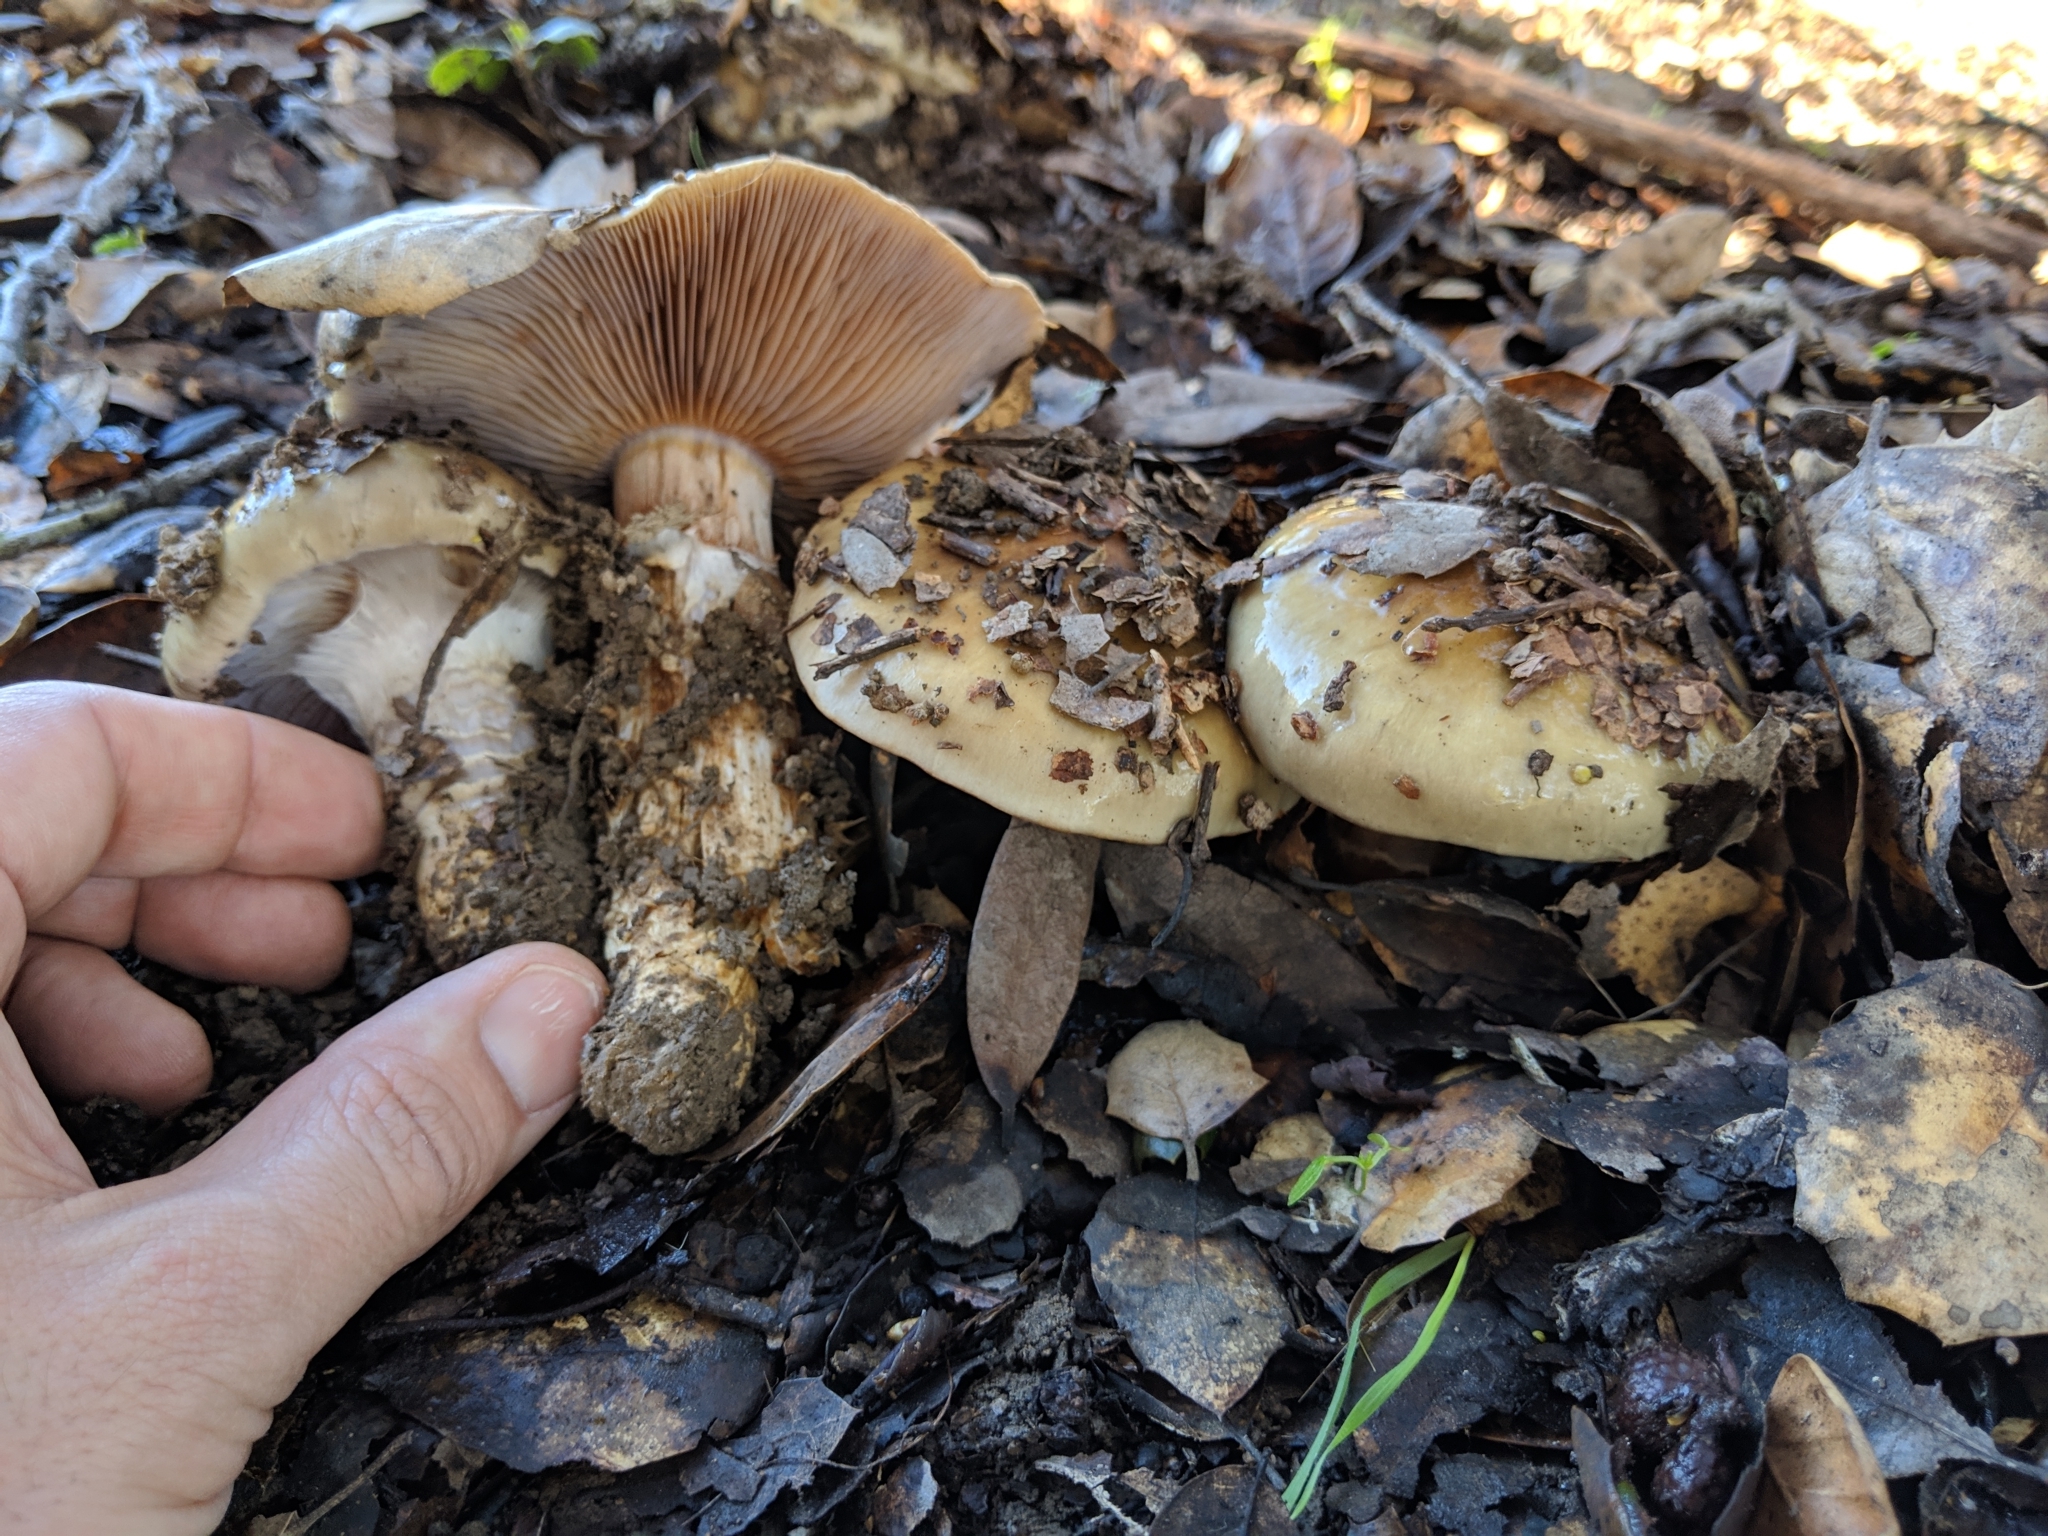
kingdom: Fungi
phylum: Basidiomycota
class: Agaricomycetes
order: Agaricales
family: Cortinariaceae
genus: Cortinarius
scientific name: Cortinarius glutinosoarmillatus
